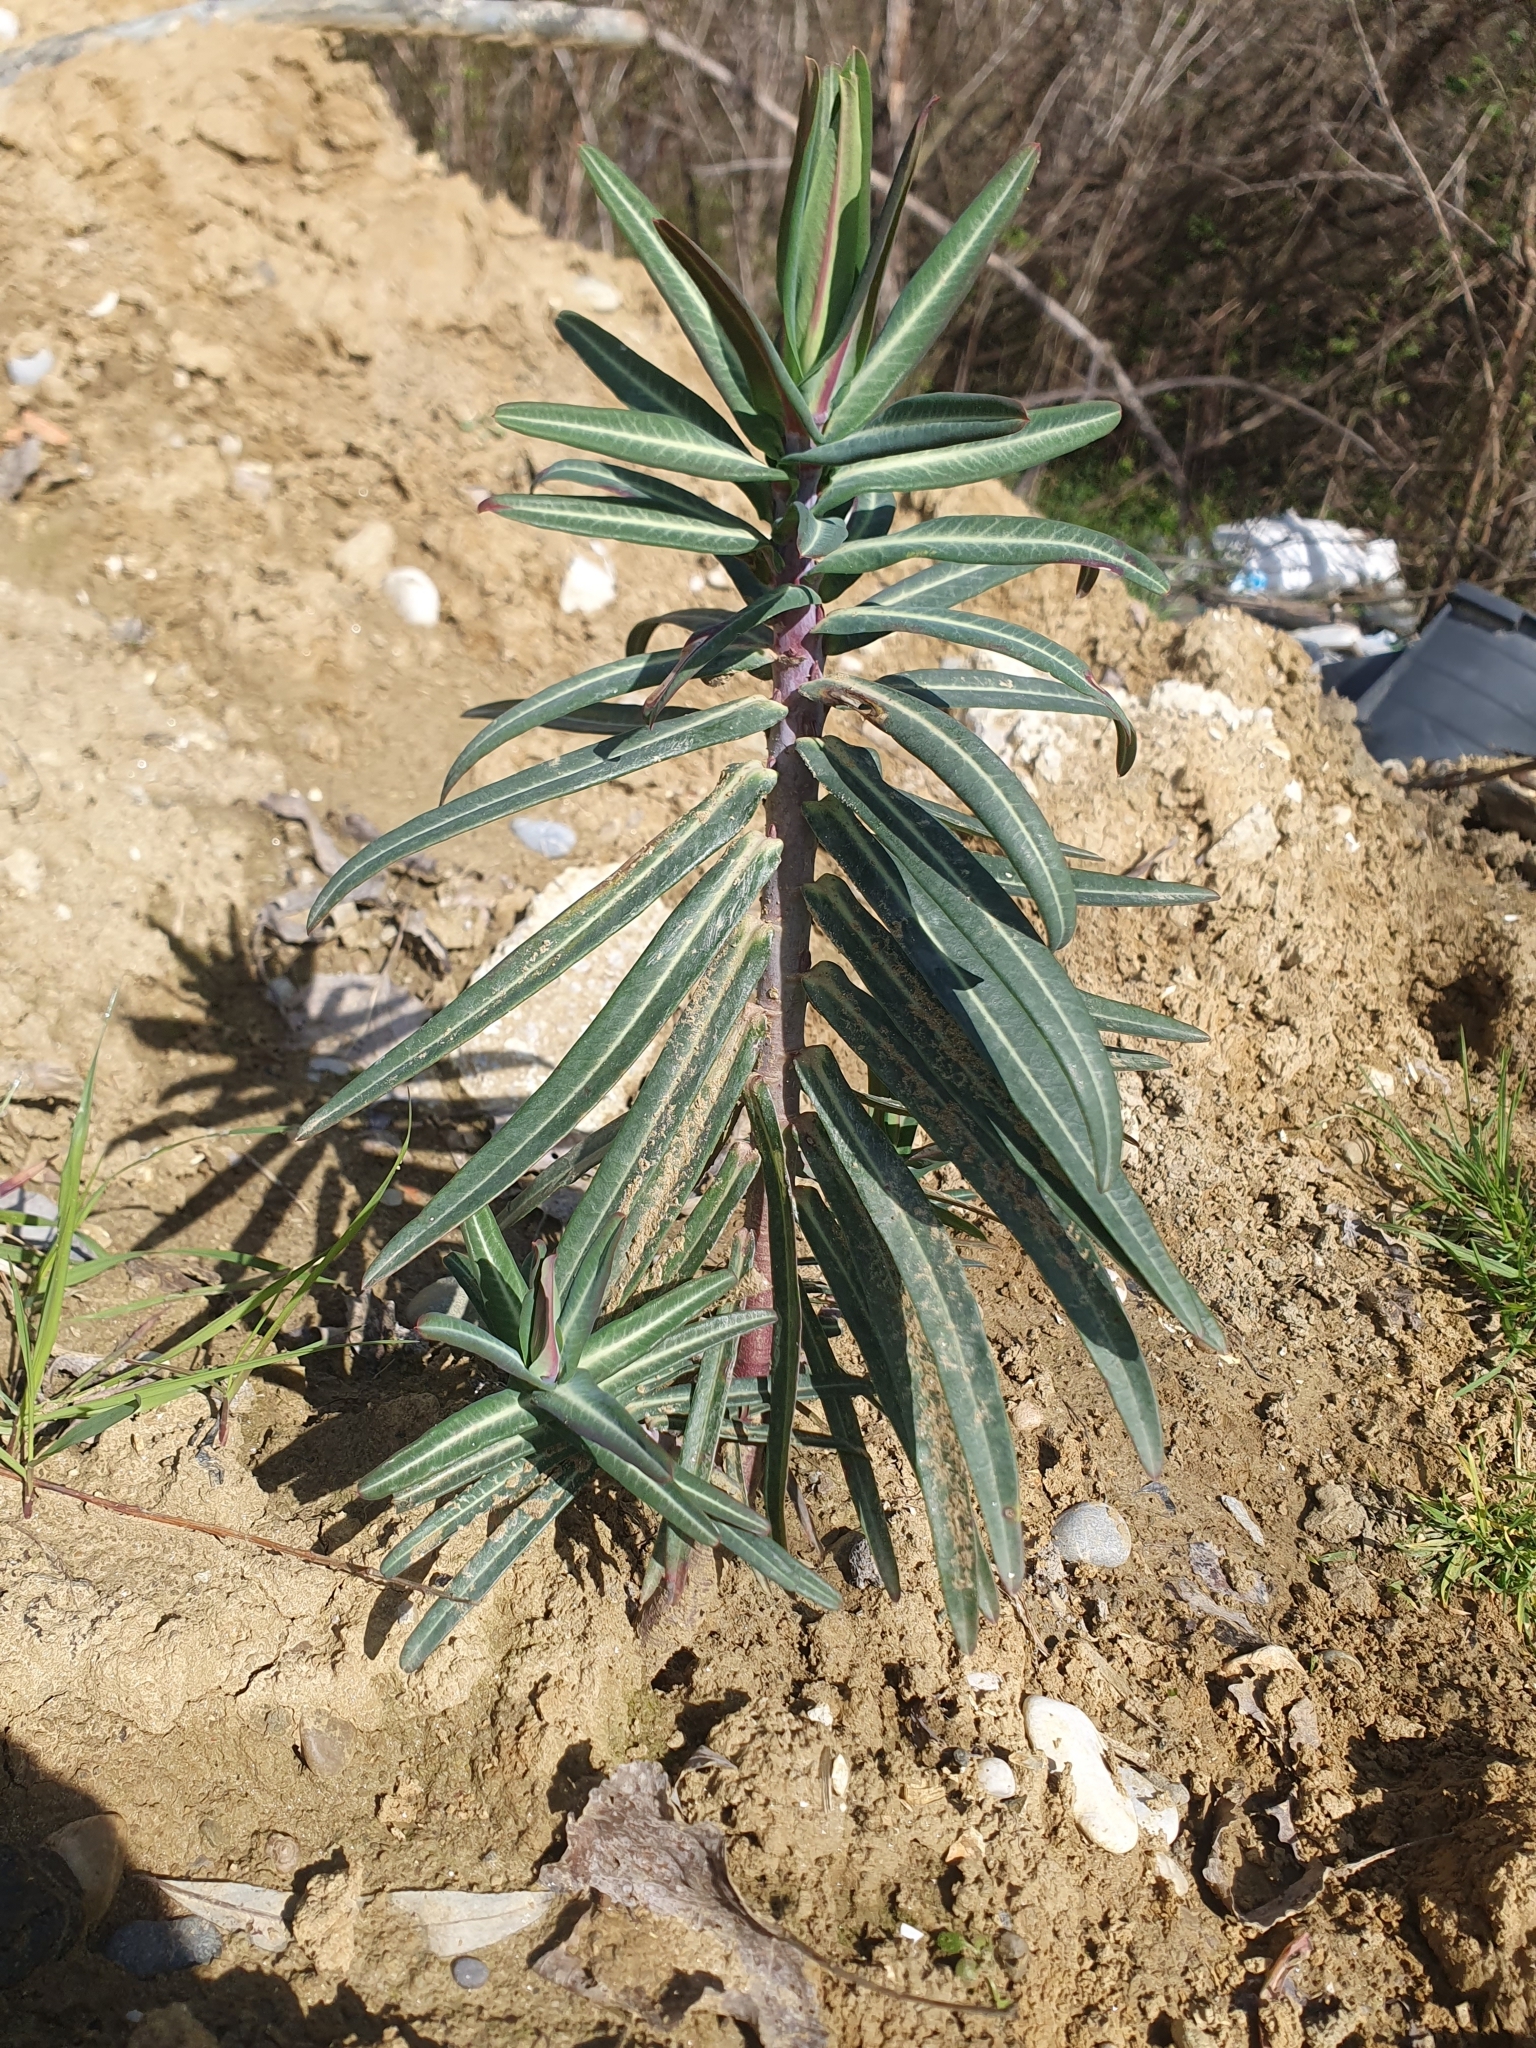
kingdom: Plantae
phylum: Tracheophyta
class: Magnoliopsida
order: Malpighiales
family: Euphorbiaceae
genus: Euphorbia
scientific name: Euphorbia lathyris
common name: Caper spurge
